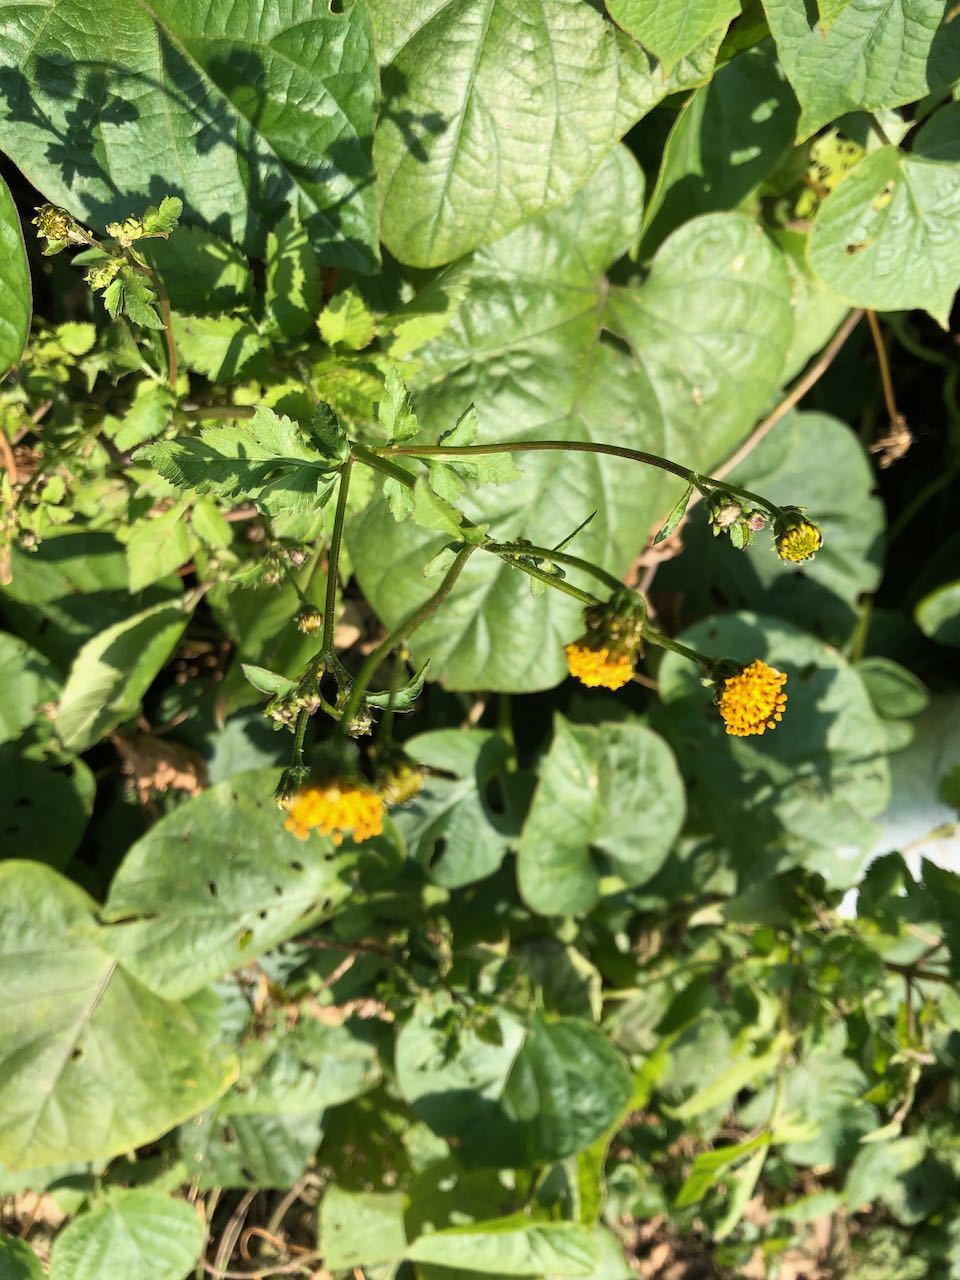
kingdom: Plantae
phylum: Tracheophyta
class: Magnoliopsida
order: Asterales
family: Asteraceae
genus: Bidens
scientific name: Bidens pilosa
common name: Black-jack
